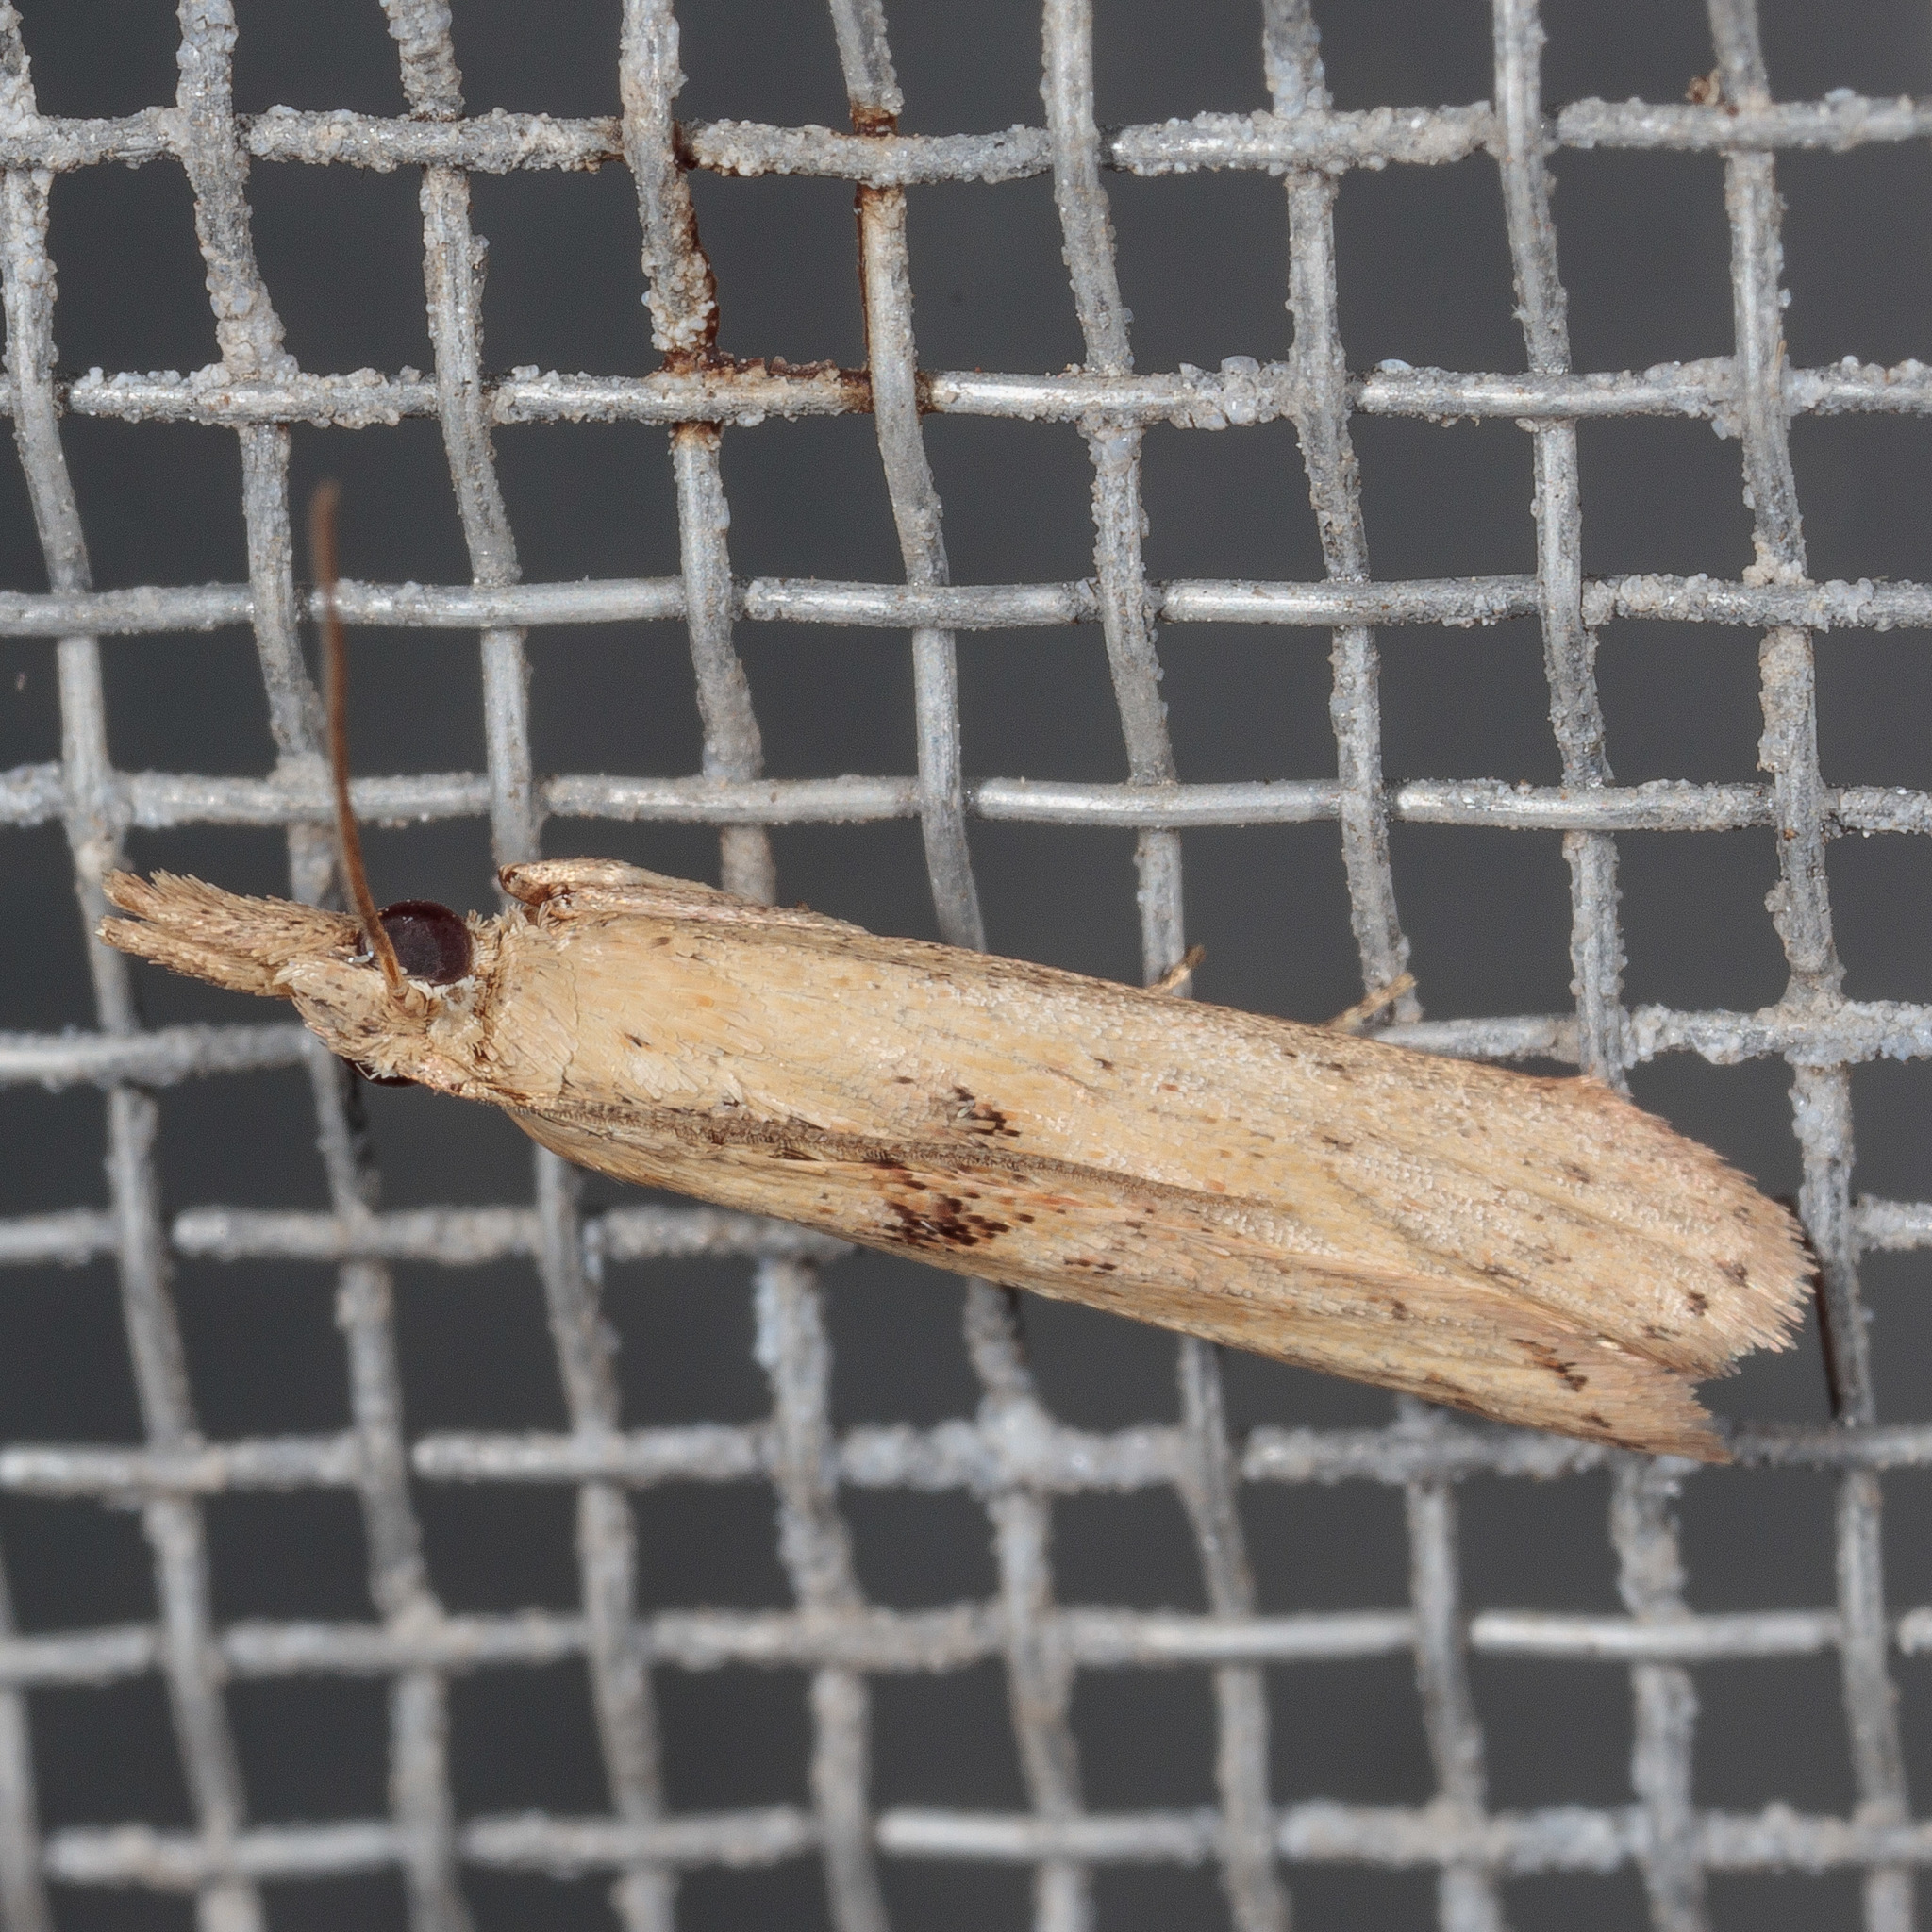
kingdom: Animalia
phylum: Arthropoda
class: Insecta
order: Lepidoptera
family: Pyralidae
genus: Macrorrhinia
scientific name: Macrorrhinia endonephele
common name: Alligator weed stemborer moth
